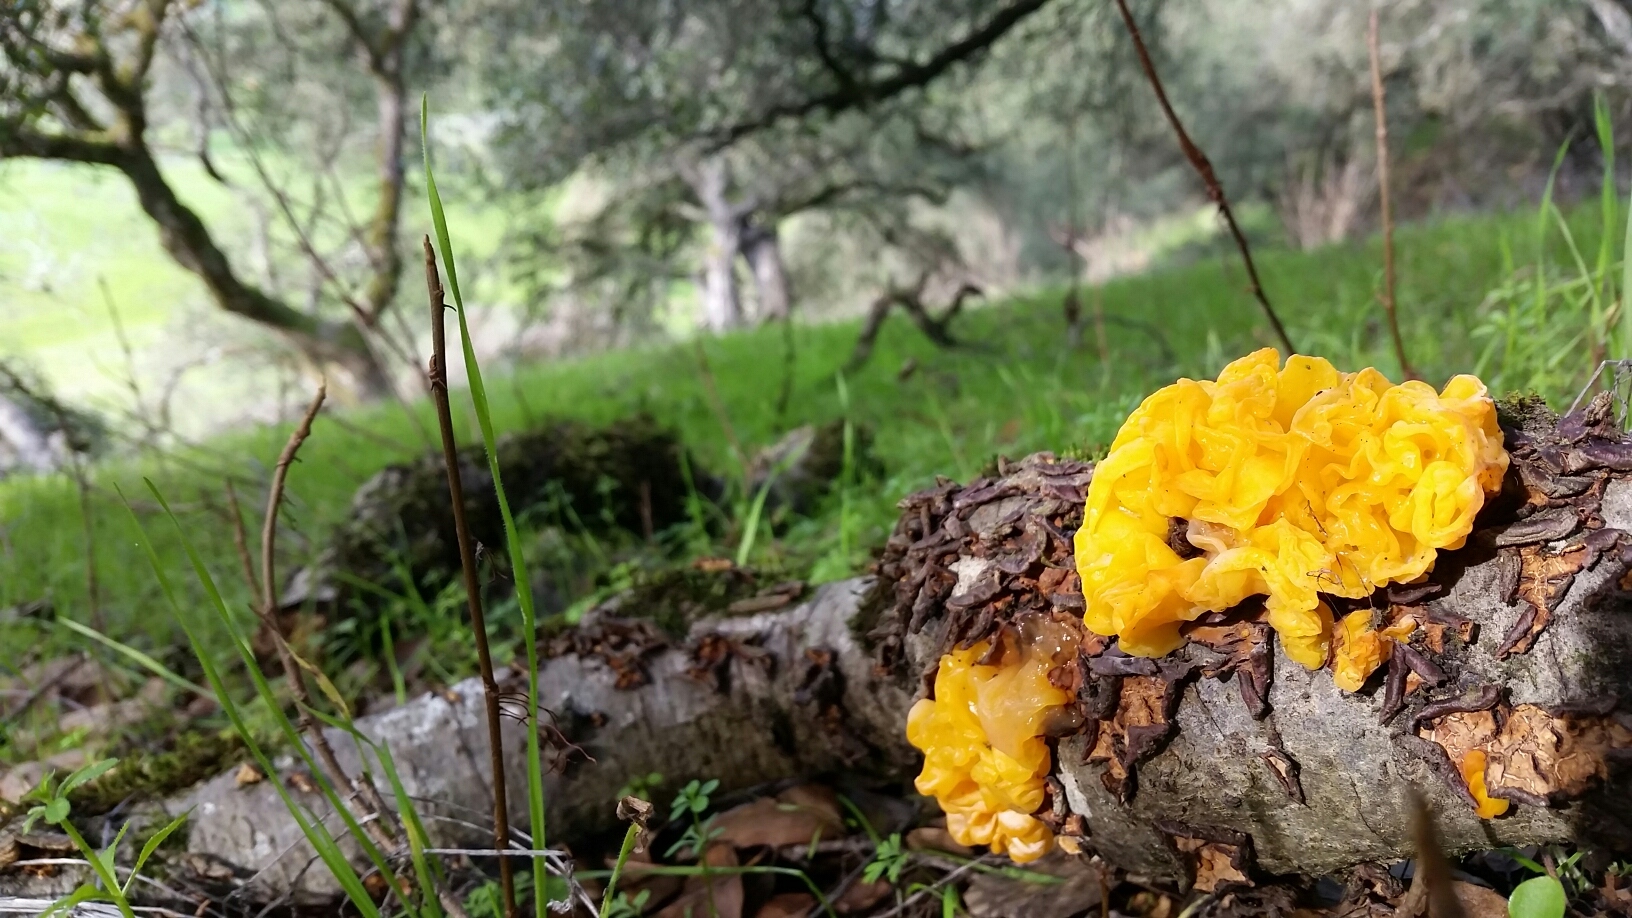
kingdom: Fungi
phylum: Basidiomycota
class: Tremellomycetes
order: Tremellales
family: Naemateliaceae
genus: Naematelia
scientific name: Naematelia aurantia
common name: Golden ear
